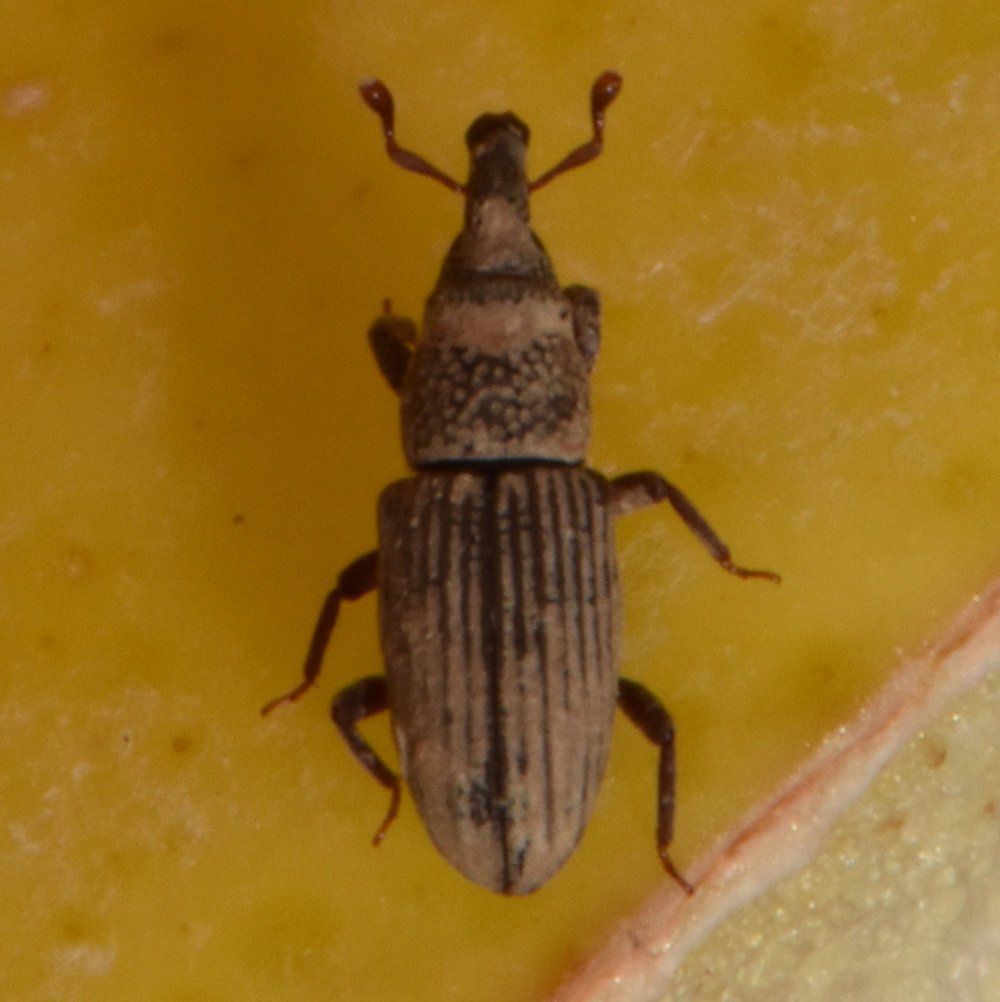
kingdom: Animalia
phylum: Arthropoda
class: Insecta
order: Coleoptera
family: Dryophthoridae
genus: Dryophthorus
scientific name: Dryophthorus americanus
